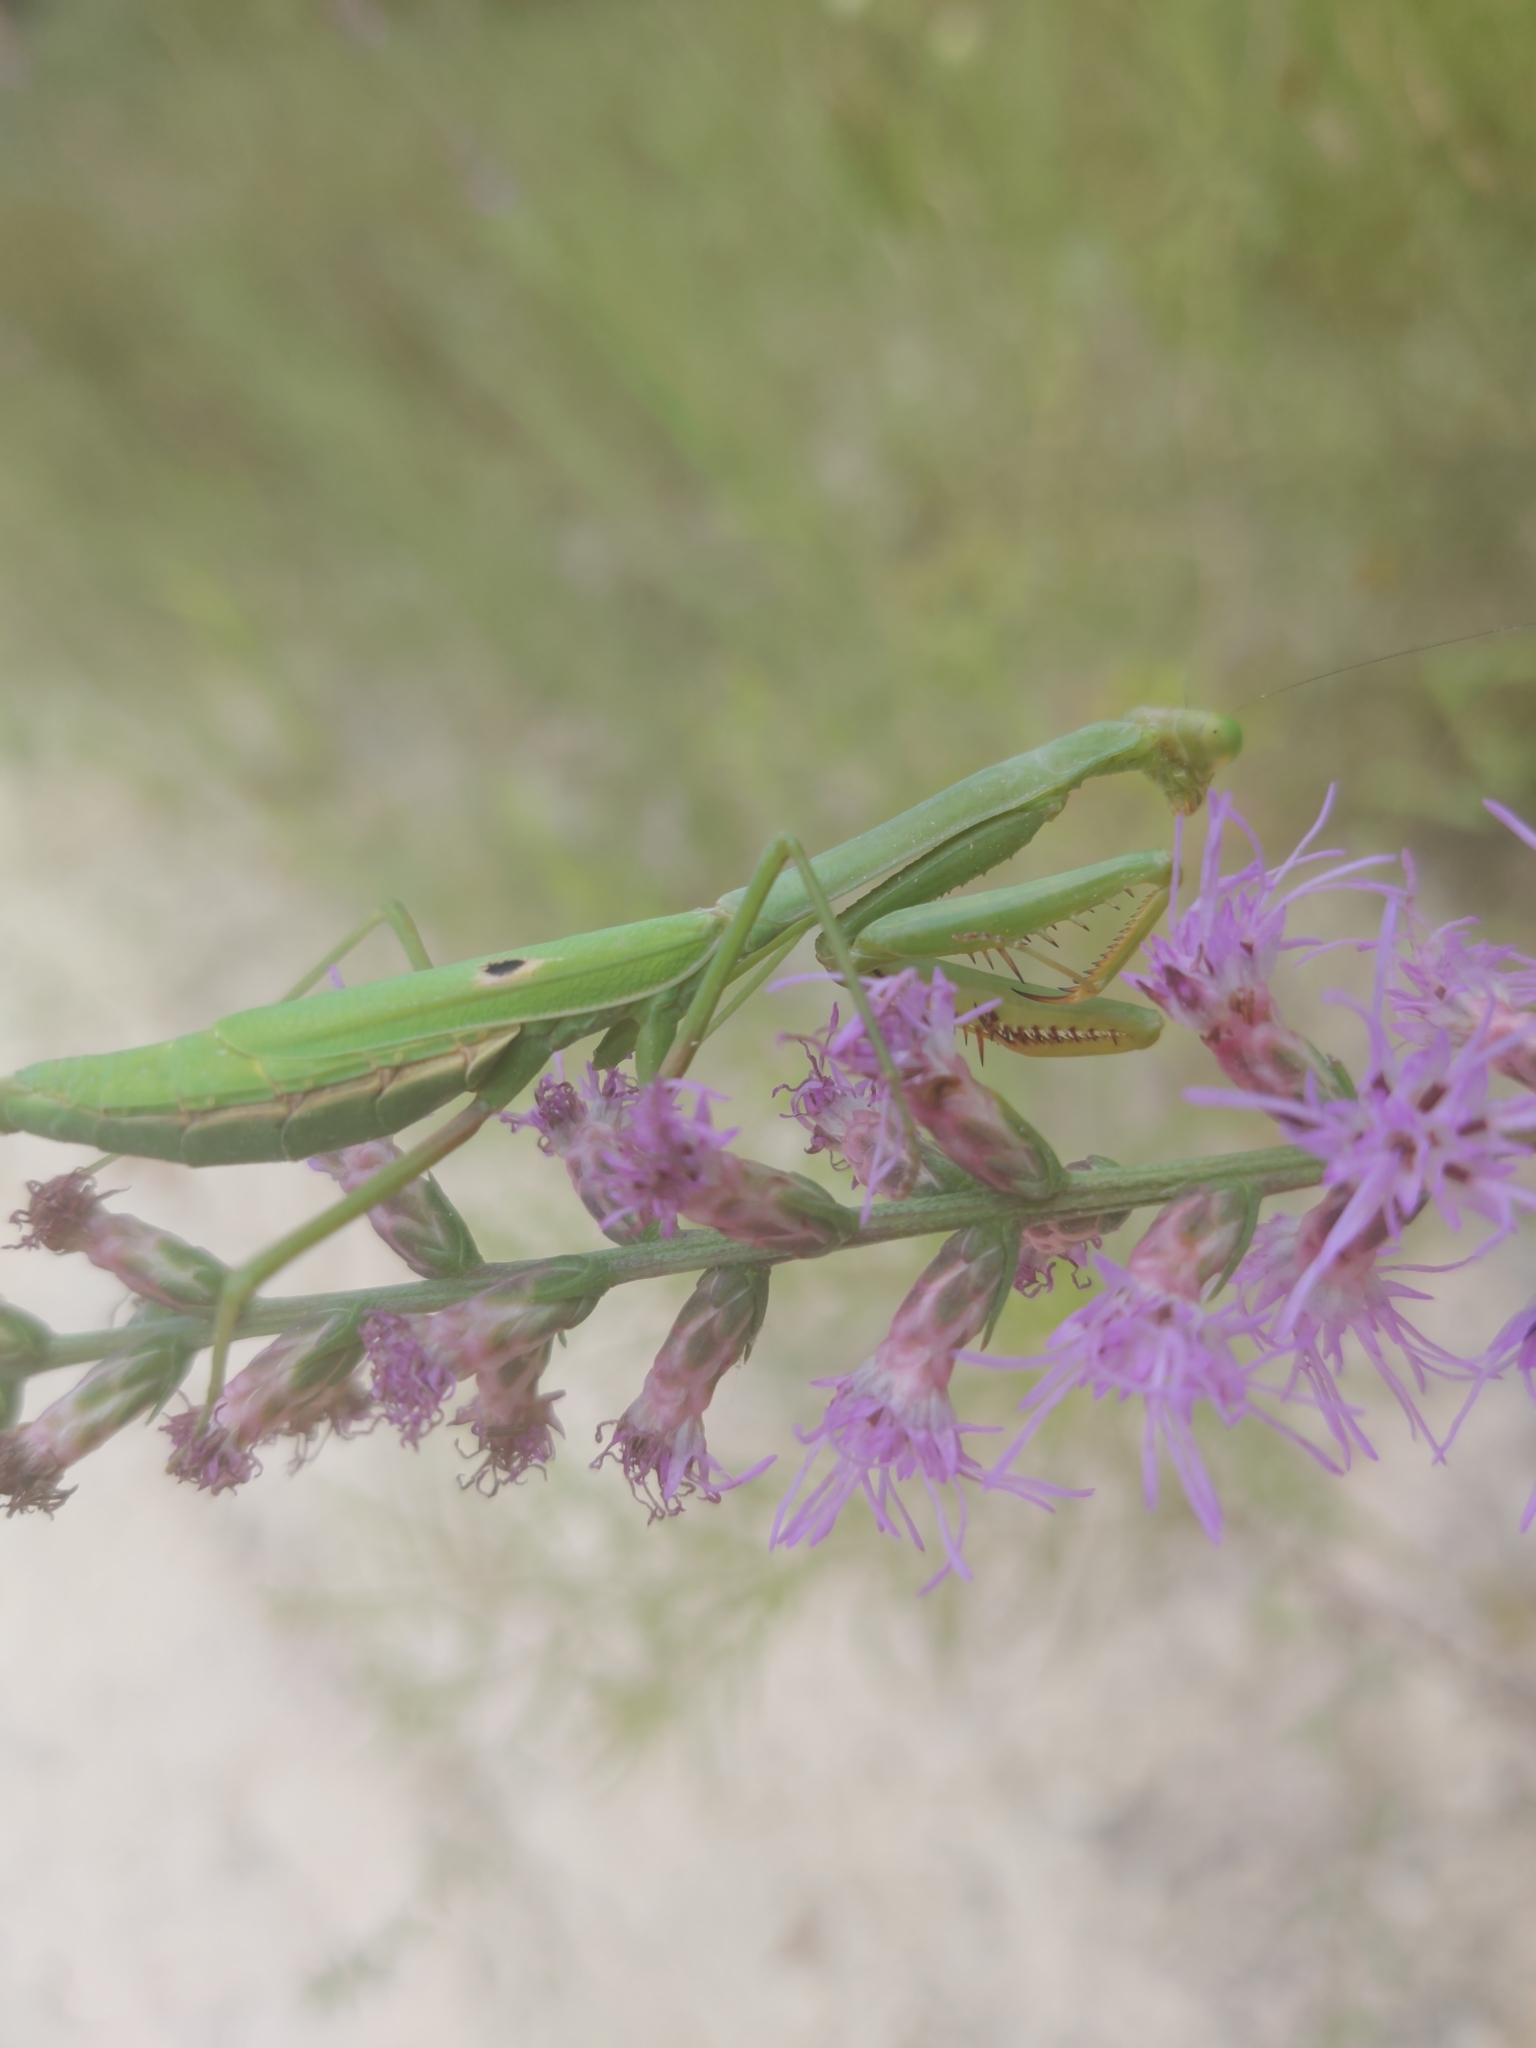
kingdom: Animalia
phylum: Arthropoda
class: Insecta
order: Mantodea
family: Mantidae
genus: Stagmomantis
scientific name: Stagmomantis carolina
